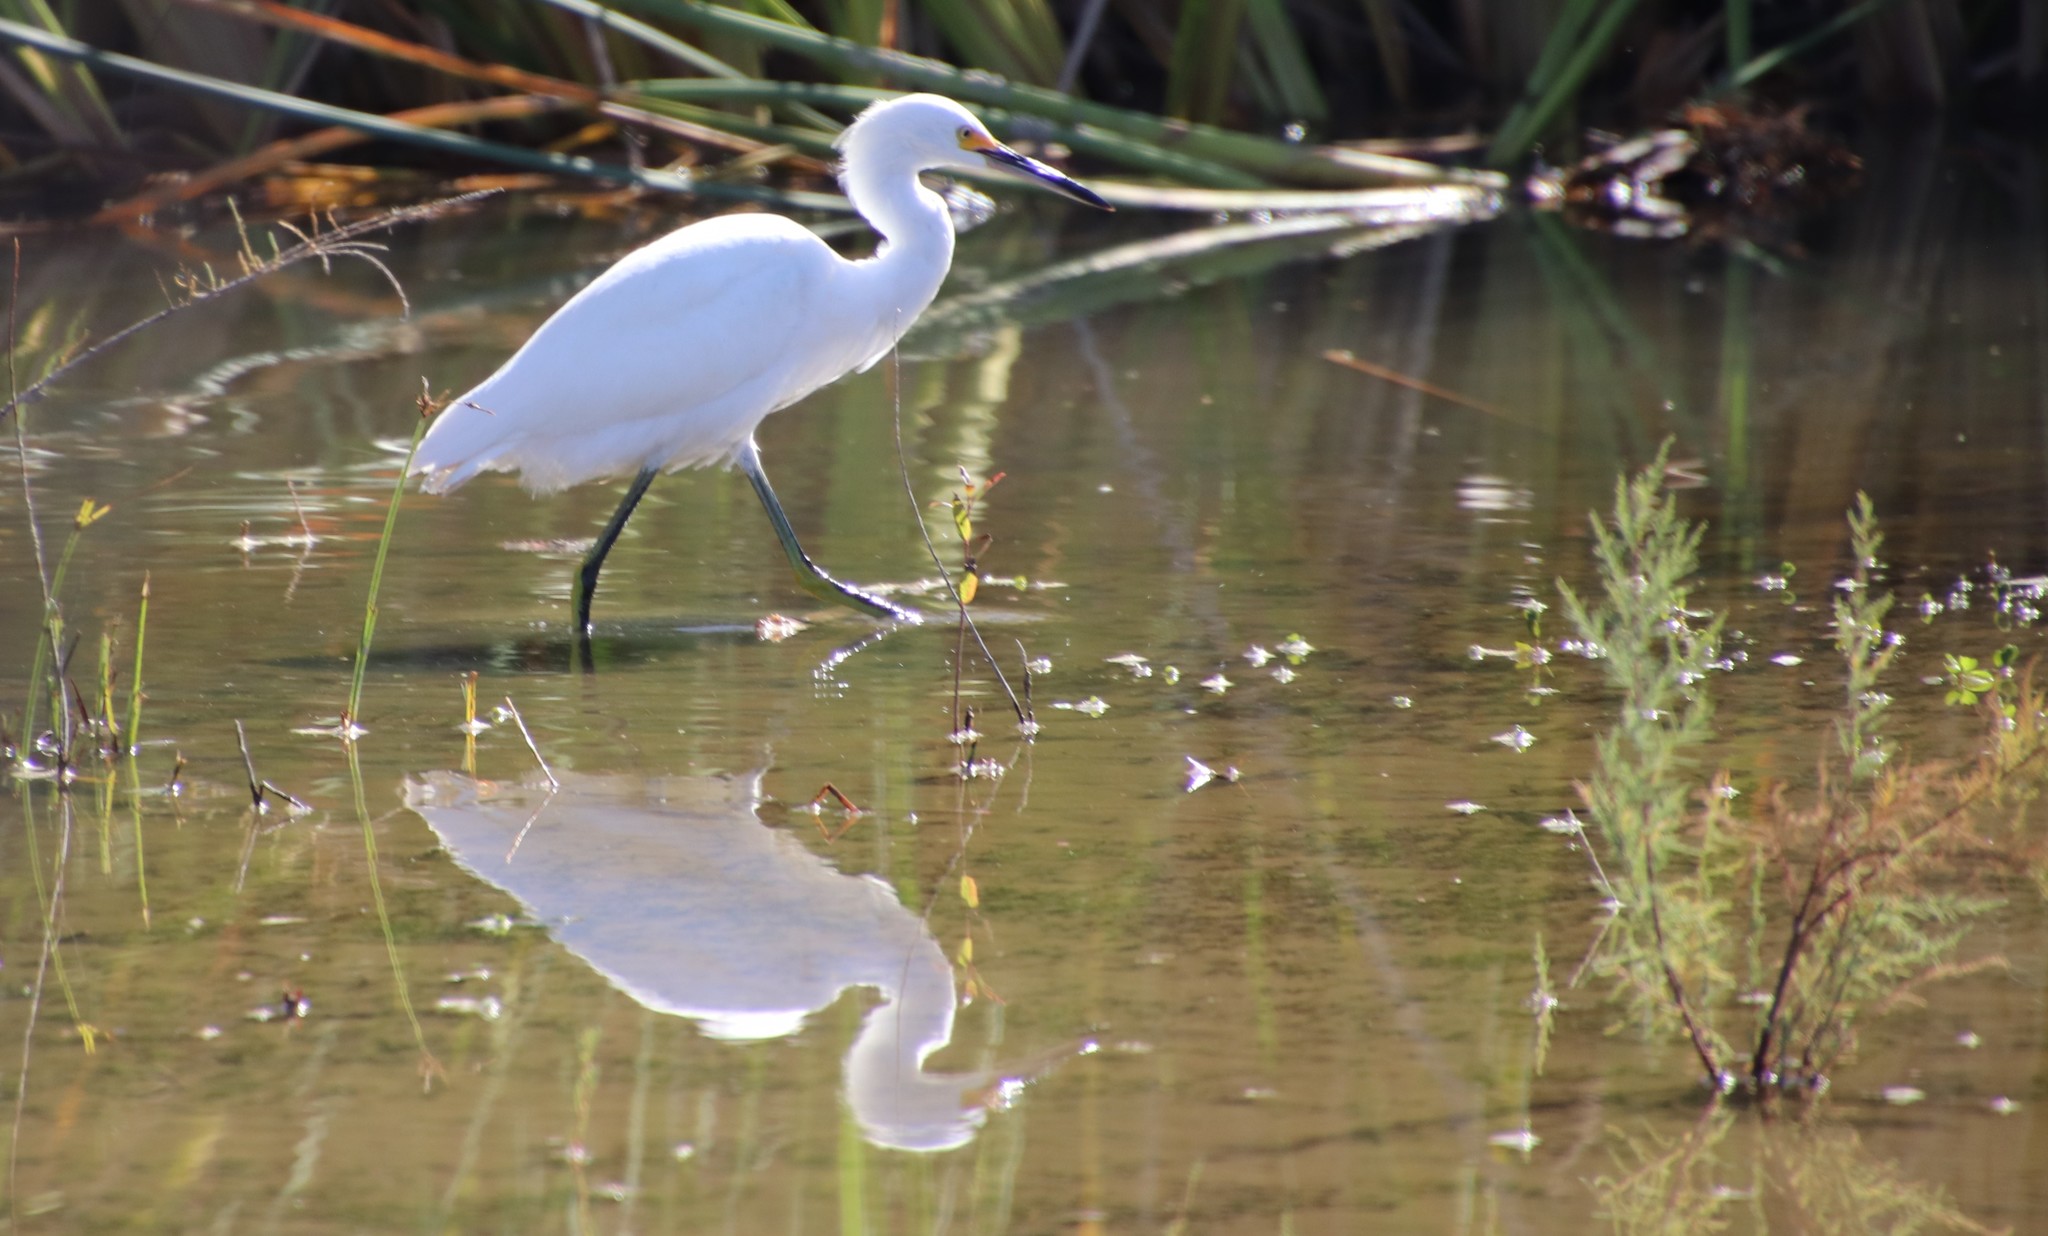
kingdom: Animalia
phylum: Chordata
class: Aves
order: Pelecaniformes
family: Ardeidae
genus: Egretta
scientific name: Egretta thula
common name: Snowy egret
